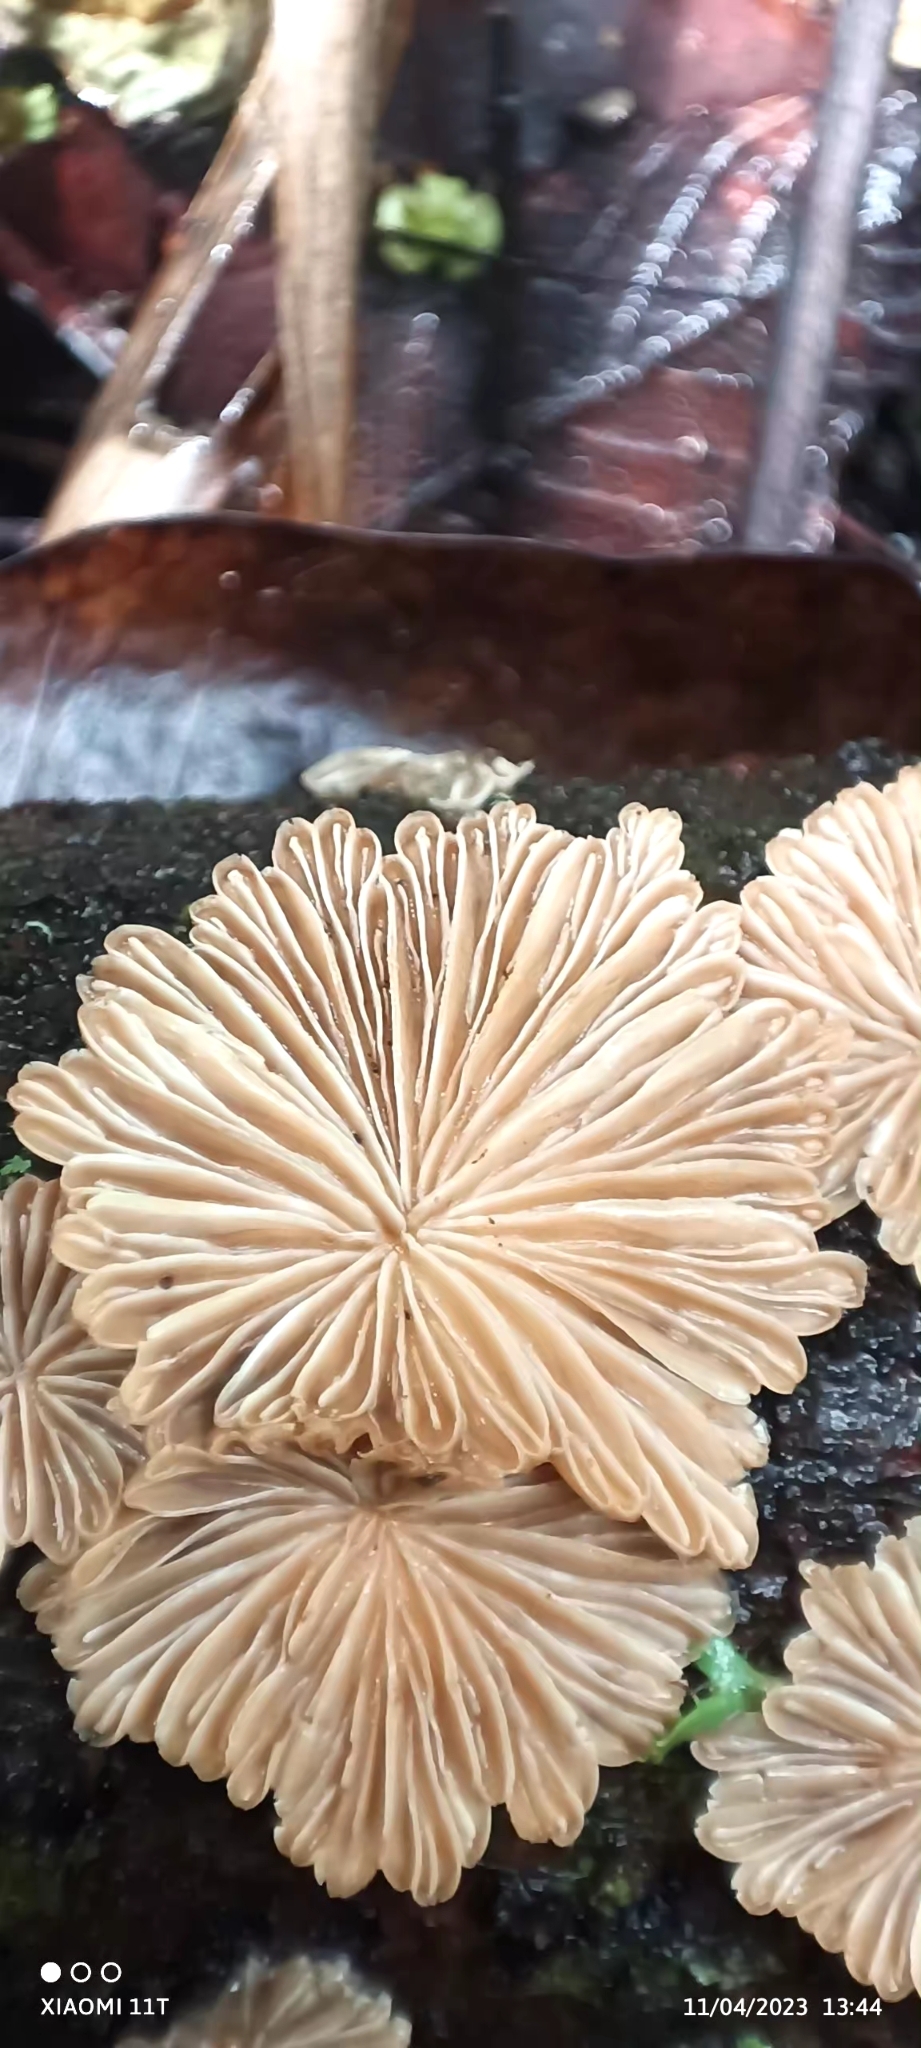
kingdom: Fungi
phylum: Basidiomycota
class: Agaricomycetes
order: Agaricales
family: Schizophyllaceae
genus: Schizophyllum
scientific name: Schizophyllum commune
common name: Common porecrust
